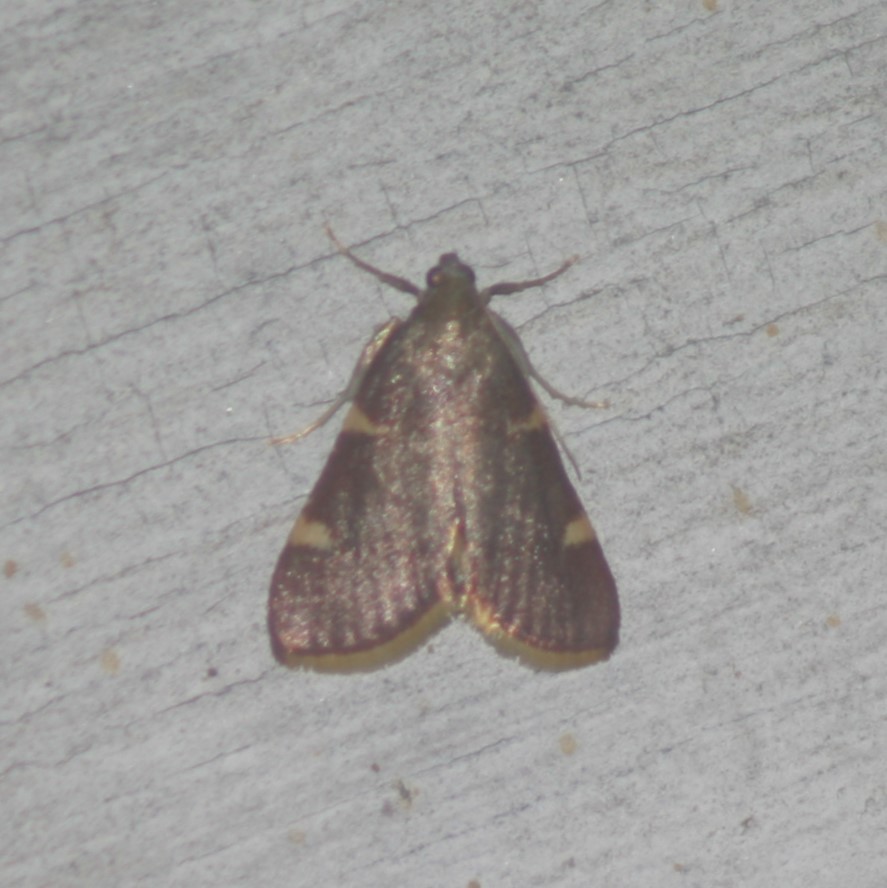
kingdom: Animalia
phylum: Arthropoda
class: Insecta
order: Lepidoptera
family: Pyralidae
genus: Hypsopygia
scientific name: Hypsopygia olinalis
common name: Yellow-fringed dolichomia moth
